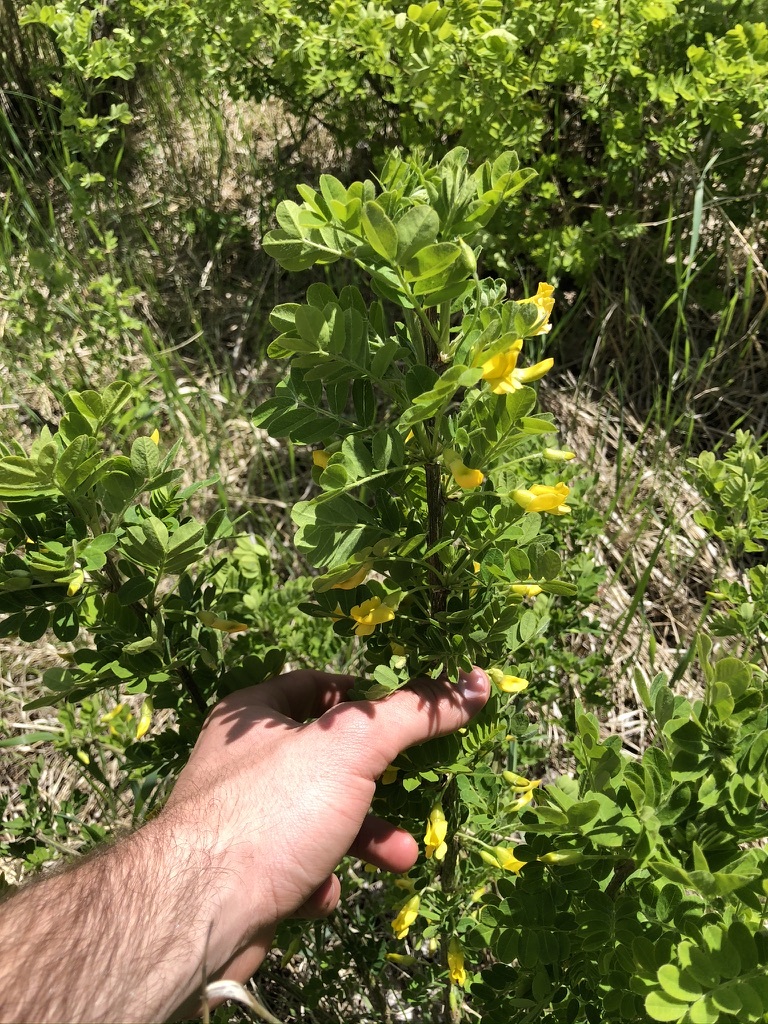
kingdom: Plantae
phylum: Tracheophyta
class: Magnoliopsida
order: Fabales
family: Fabaceae
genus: Caragana
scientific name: Caragana arborescens
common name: Siberian peashrub
